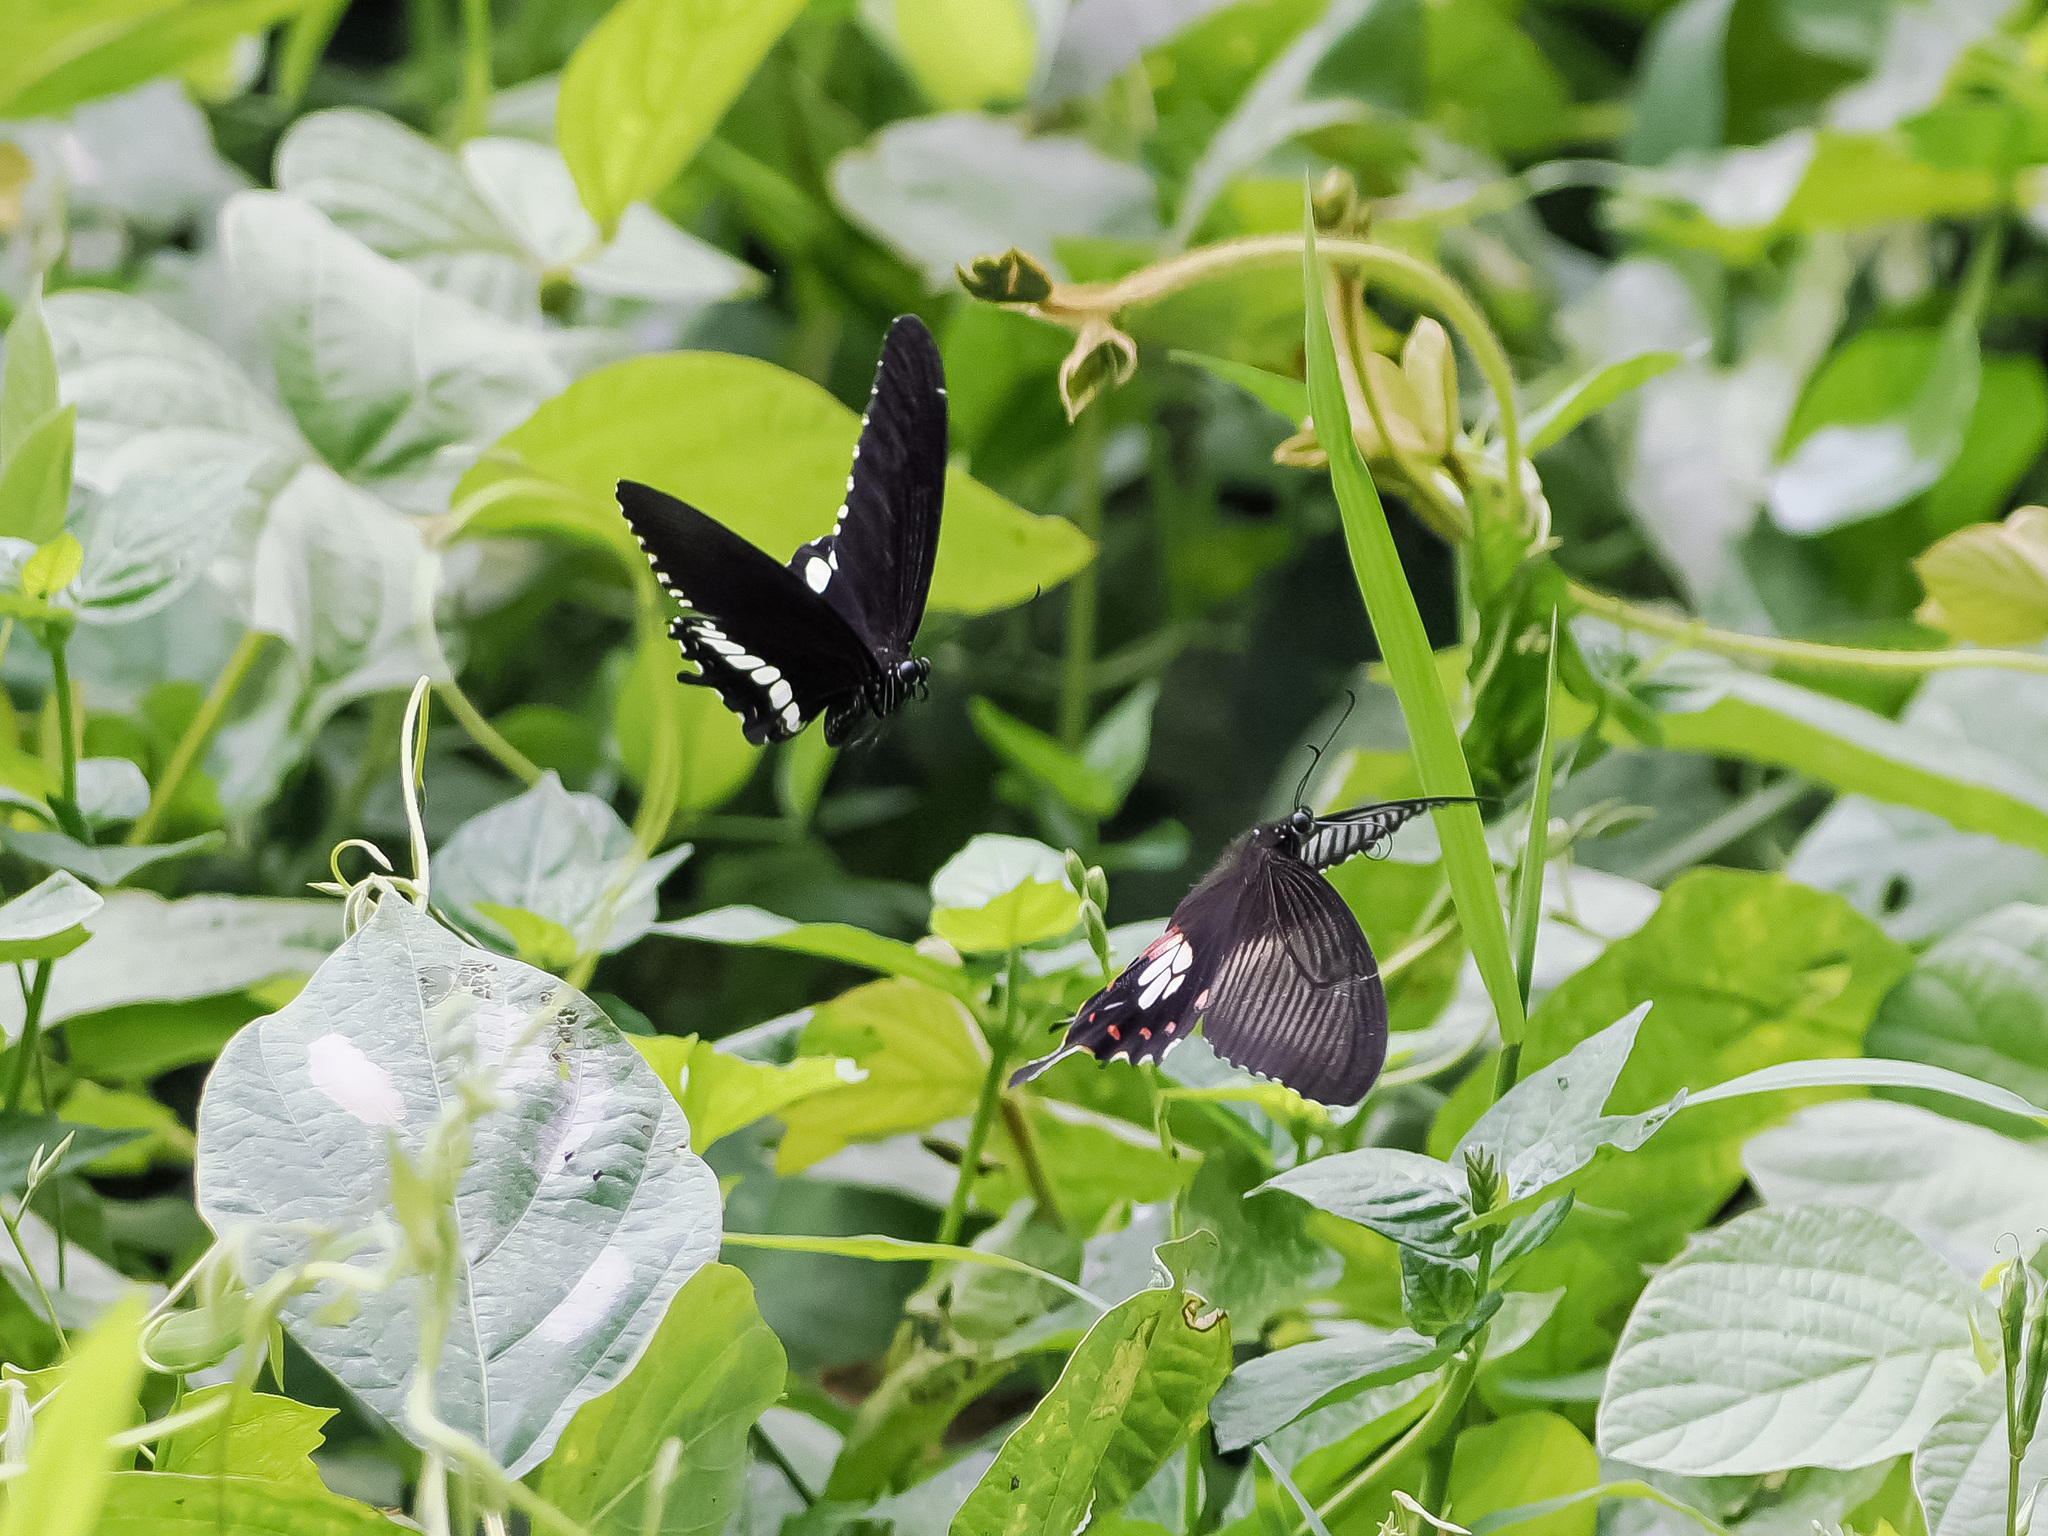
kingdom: Animalia
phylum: Arthropoda
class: Insecta
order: Lepidoptera
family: Papilionidae
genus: Papilio
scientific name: Papilio polytes
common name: Common mormon
